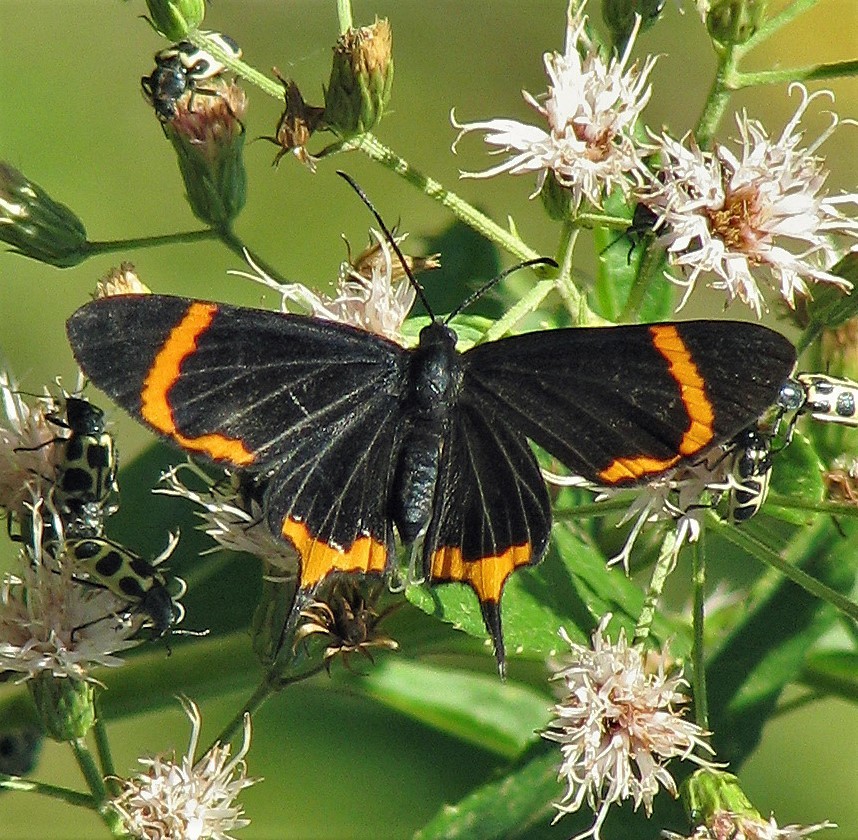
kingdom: Animalia
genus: Barbicornis
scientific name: Barbicornis basilis
